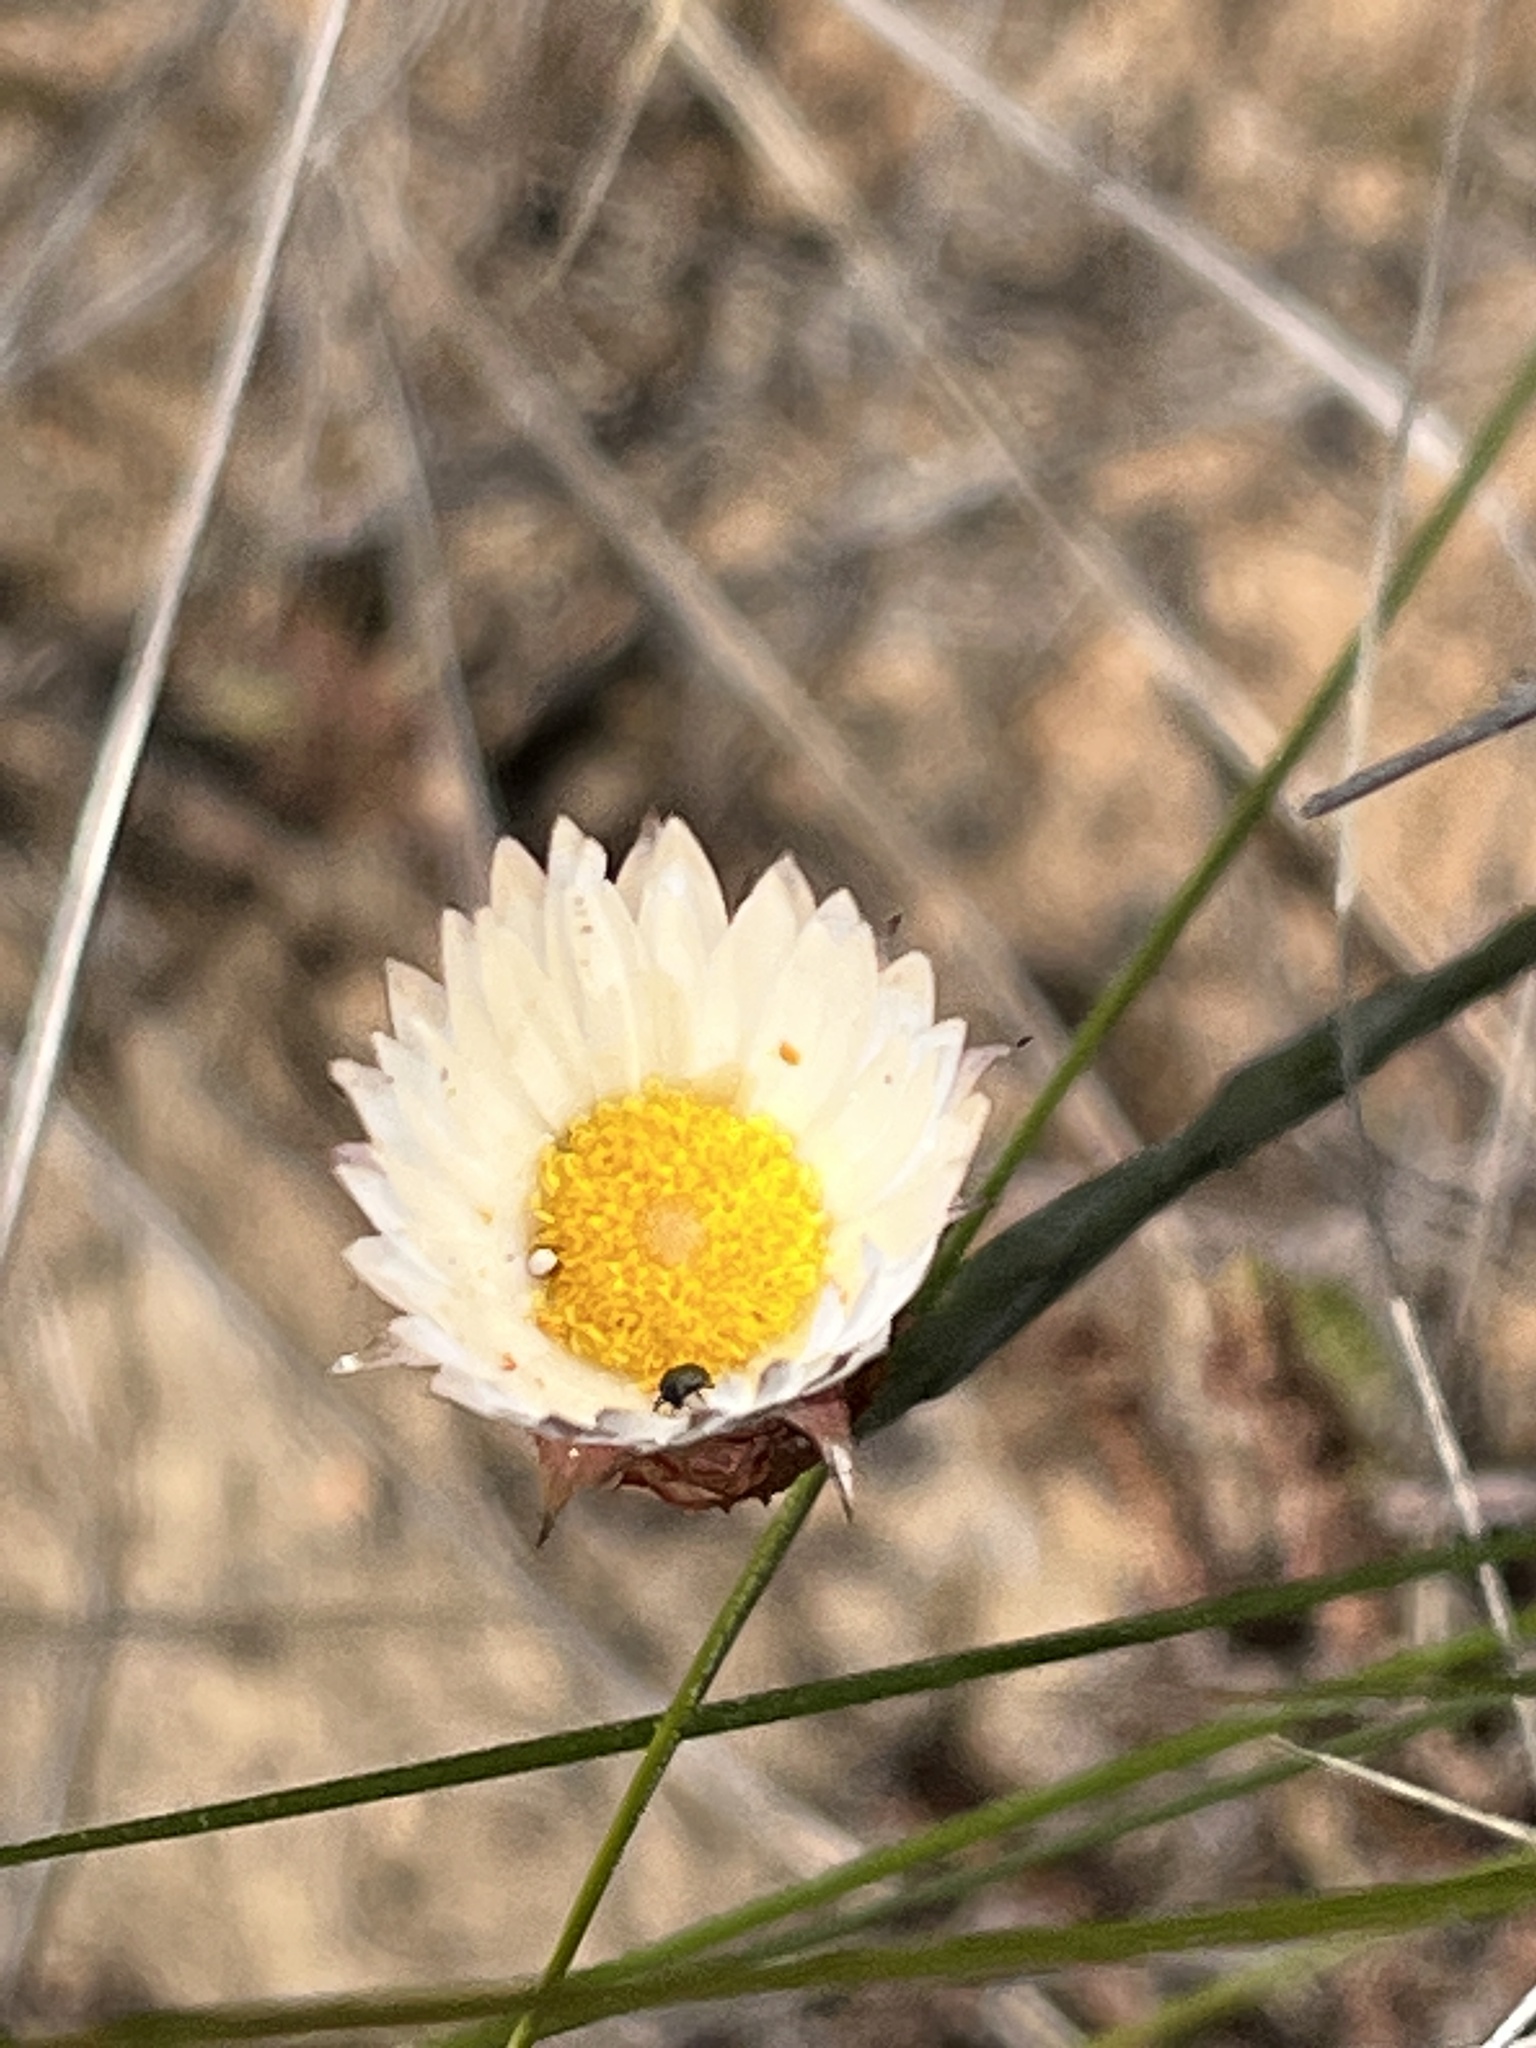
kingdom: Plantae
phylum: Tracheophyta
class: Magnoliopsida
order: Asterales
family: Asteraceae
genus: Helichrysum
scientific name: Helichrysum lancifolium
